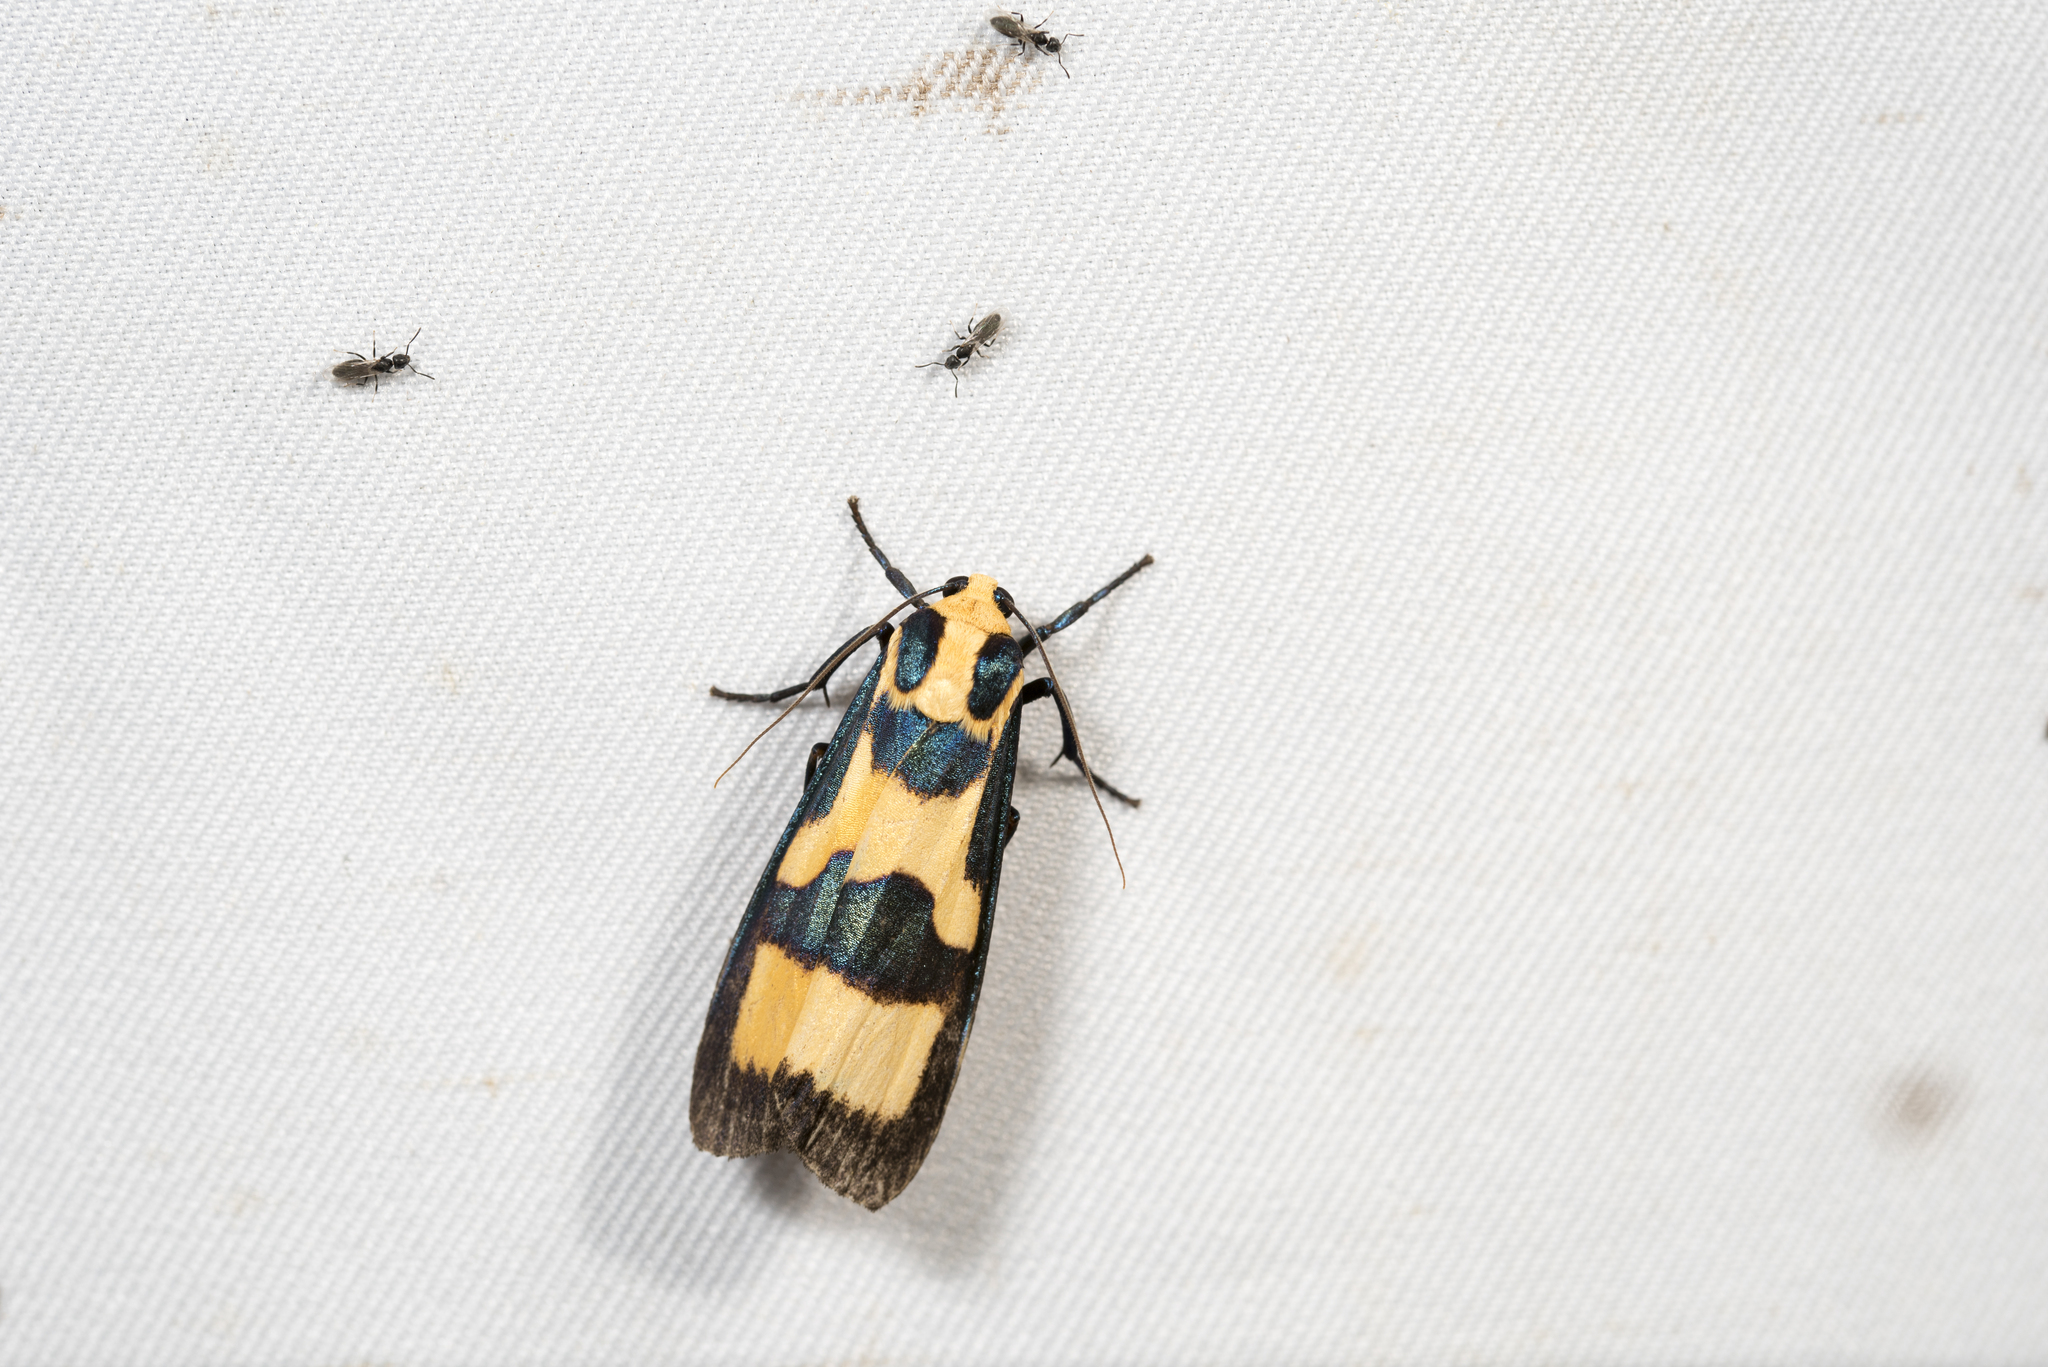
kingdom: Animalia
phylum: Arthropoda
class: Insecta
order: Lepidoptera
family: Erebidae
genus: Chrysaeglia
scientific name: Chrysaeglia magnifica
